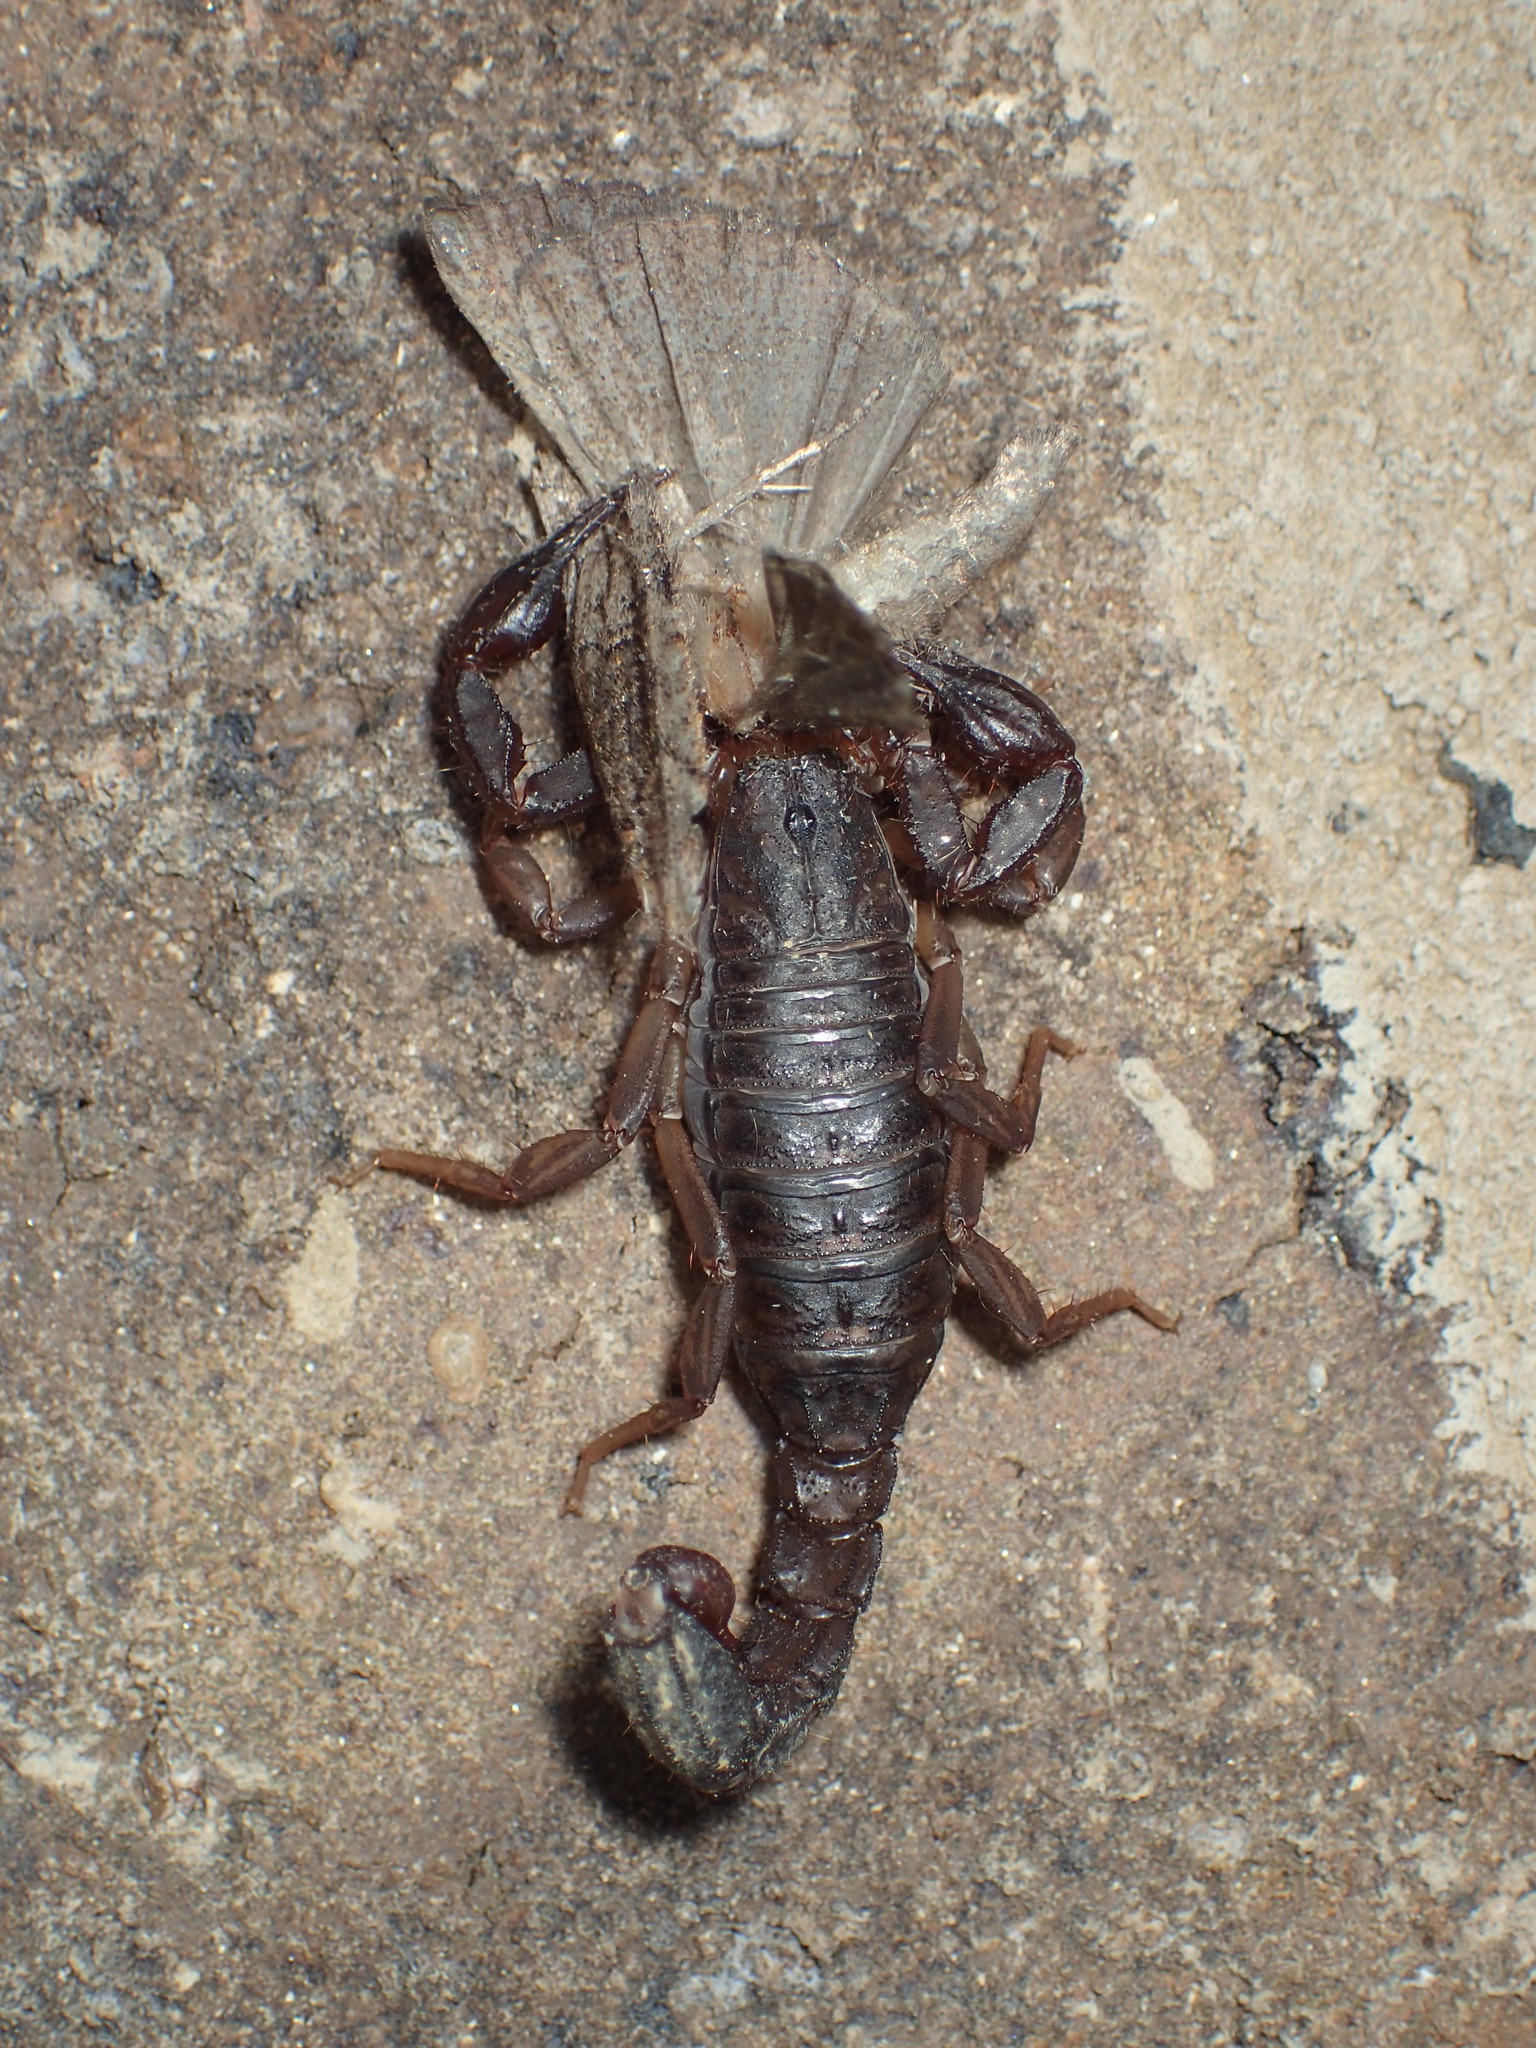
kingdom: Animalia
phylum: Arthropoda
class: Arachnida
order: Scorpiones
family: Vaejovidae
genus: Vaejovis
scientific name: Vaejovis carolinianus
